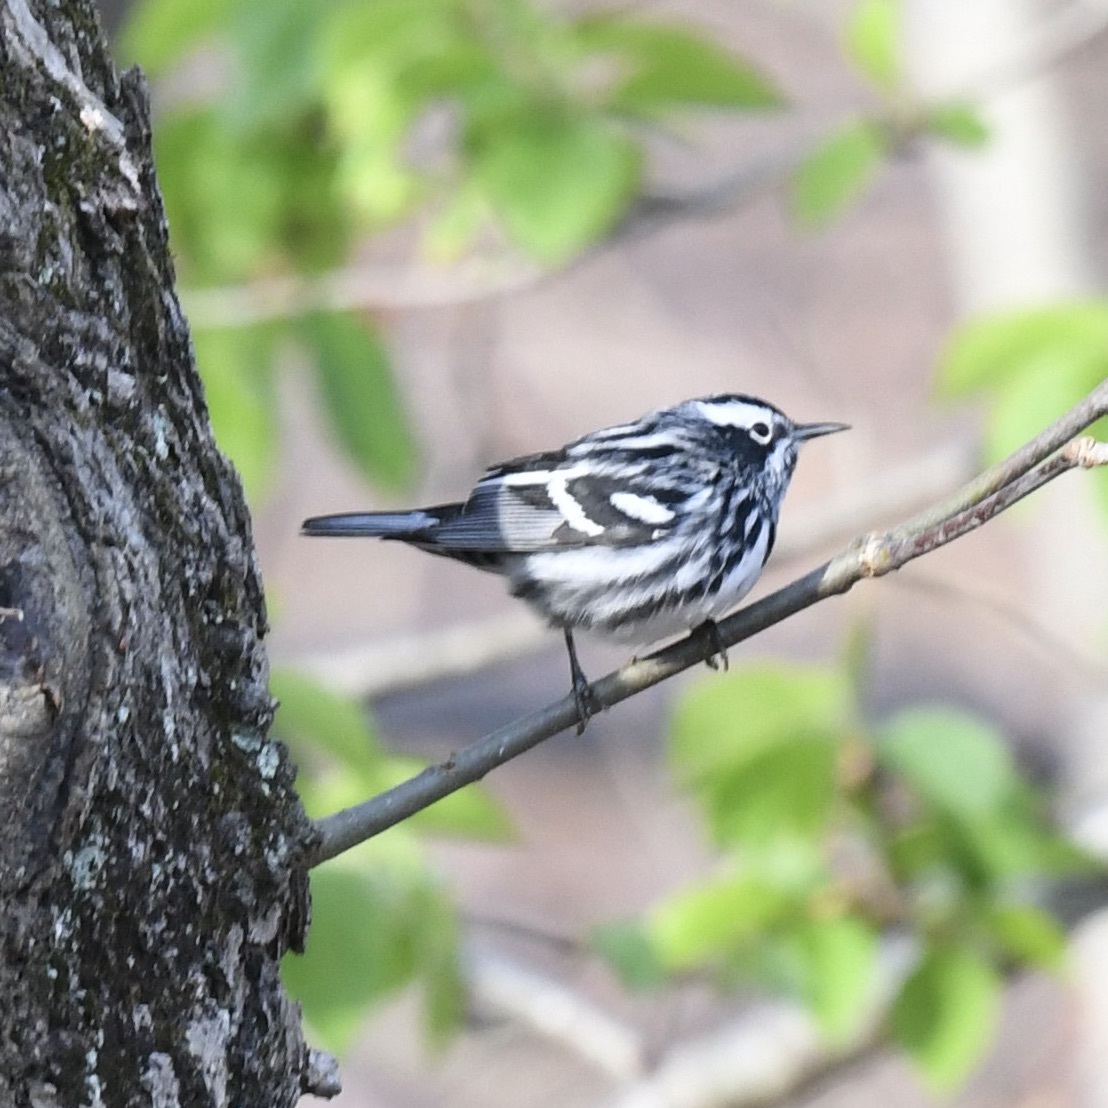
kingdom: Animalia
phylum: Chordata
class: Aves
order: Passeriformes
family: Parulidae
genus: Mniotilta
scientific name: Mniotilta varia
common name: Black-and-white warbler
